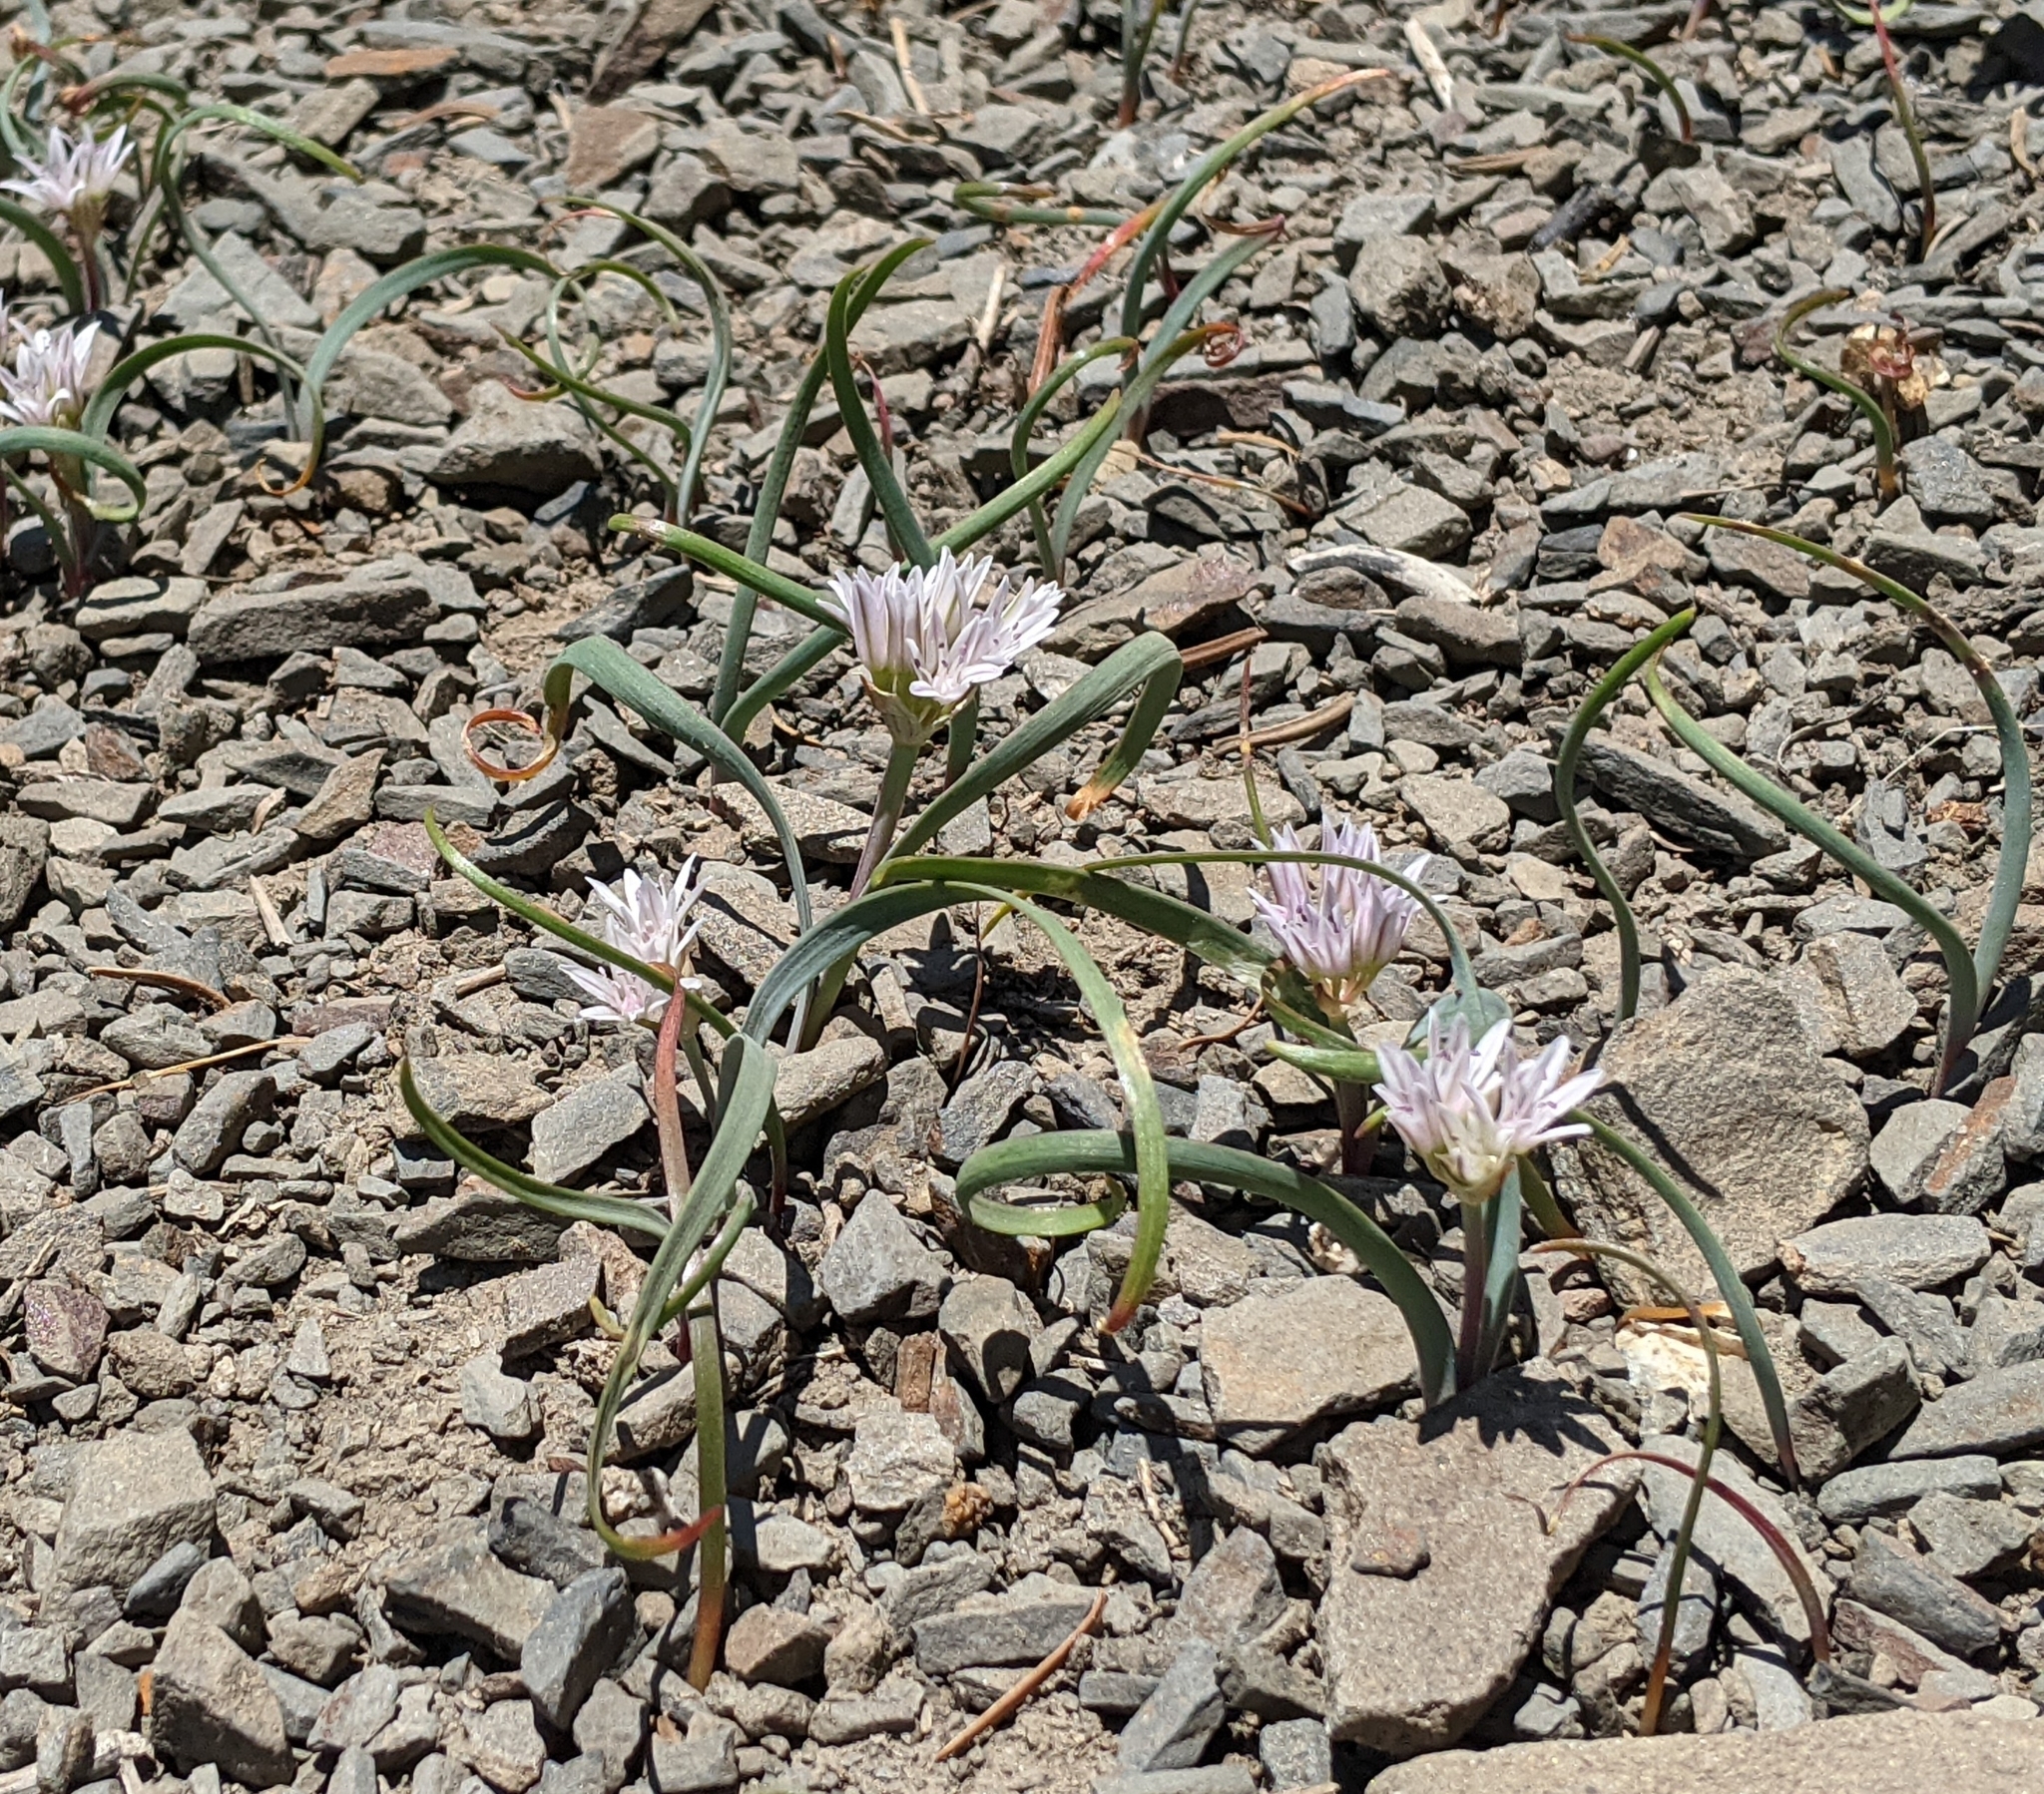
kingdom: Plantae
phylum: Tracheophyta
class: Liliopsida
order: Asparagales
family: Amaryllidaceae
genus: Allium
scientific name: Allium crenulatum
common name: Olympic onion
